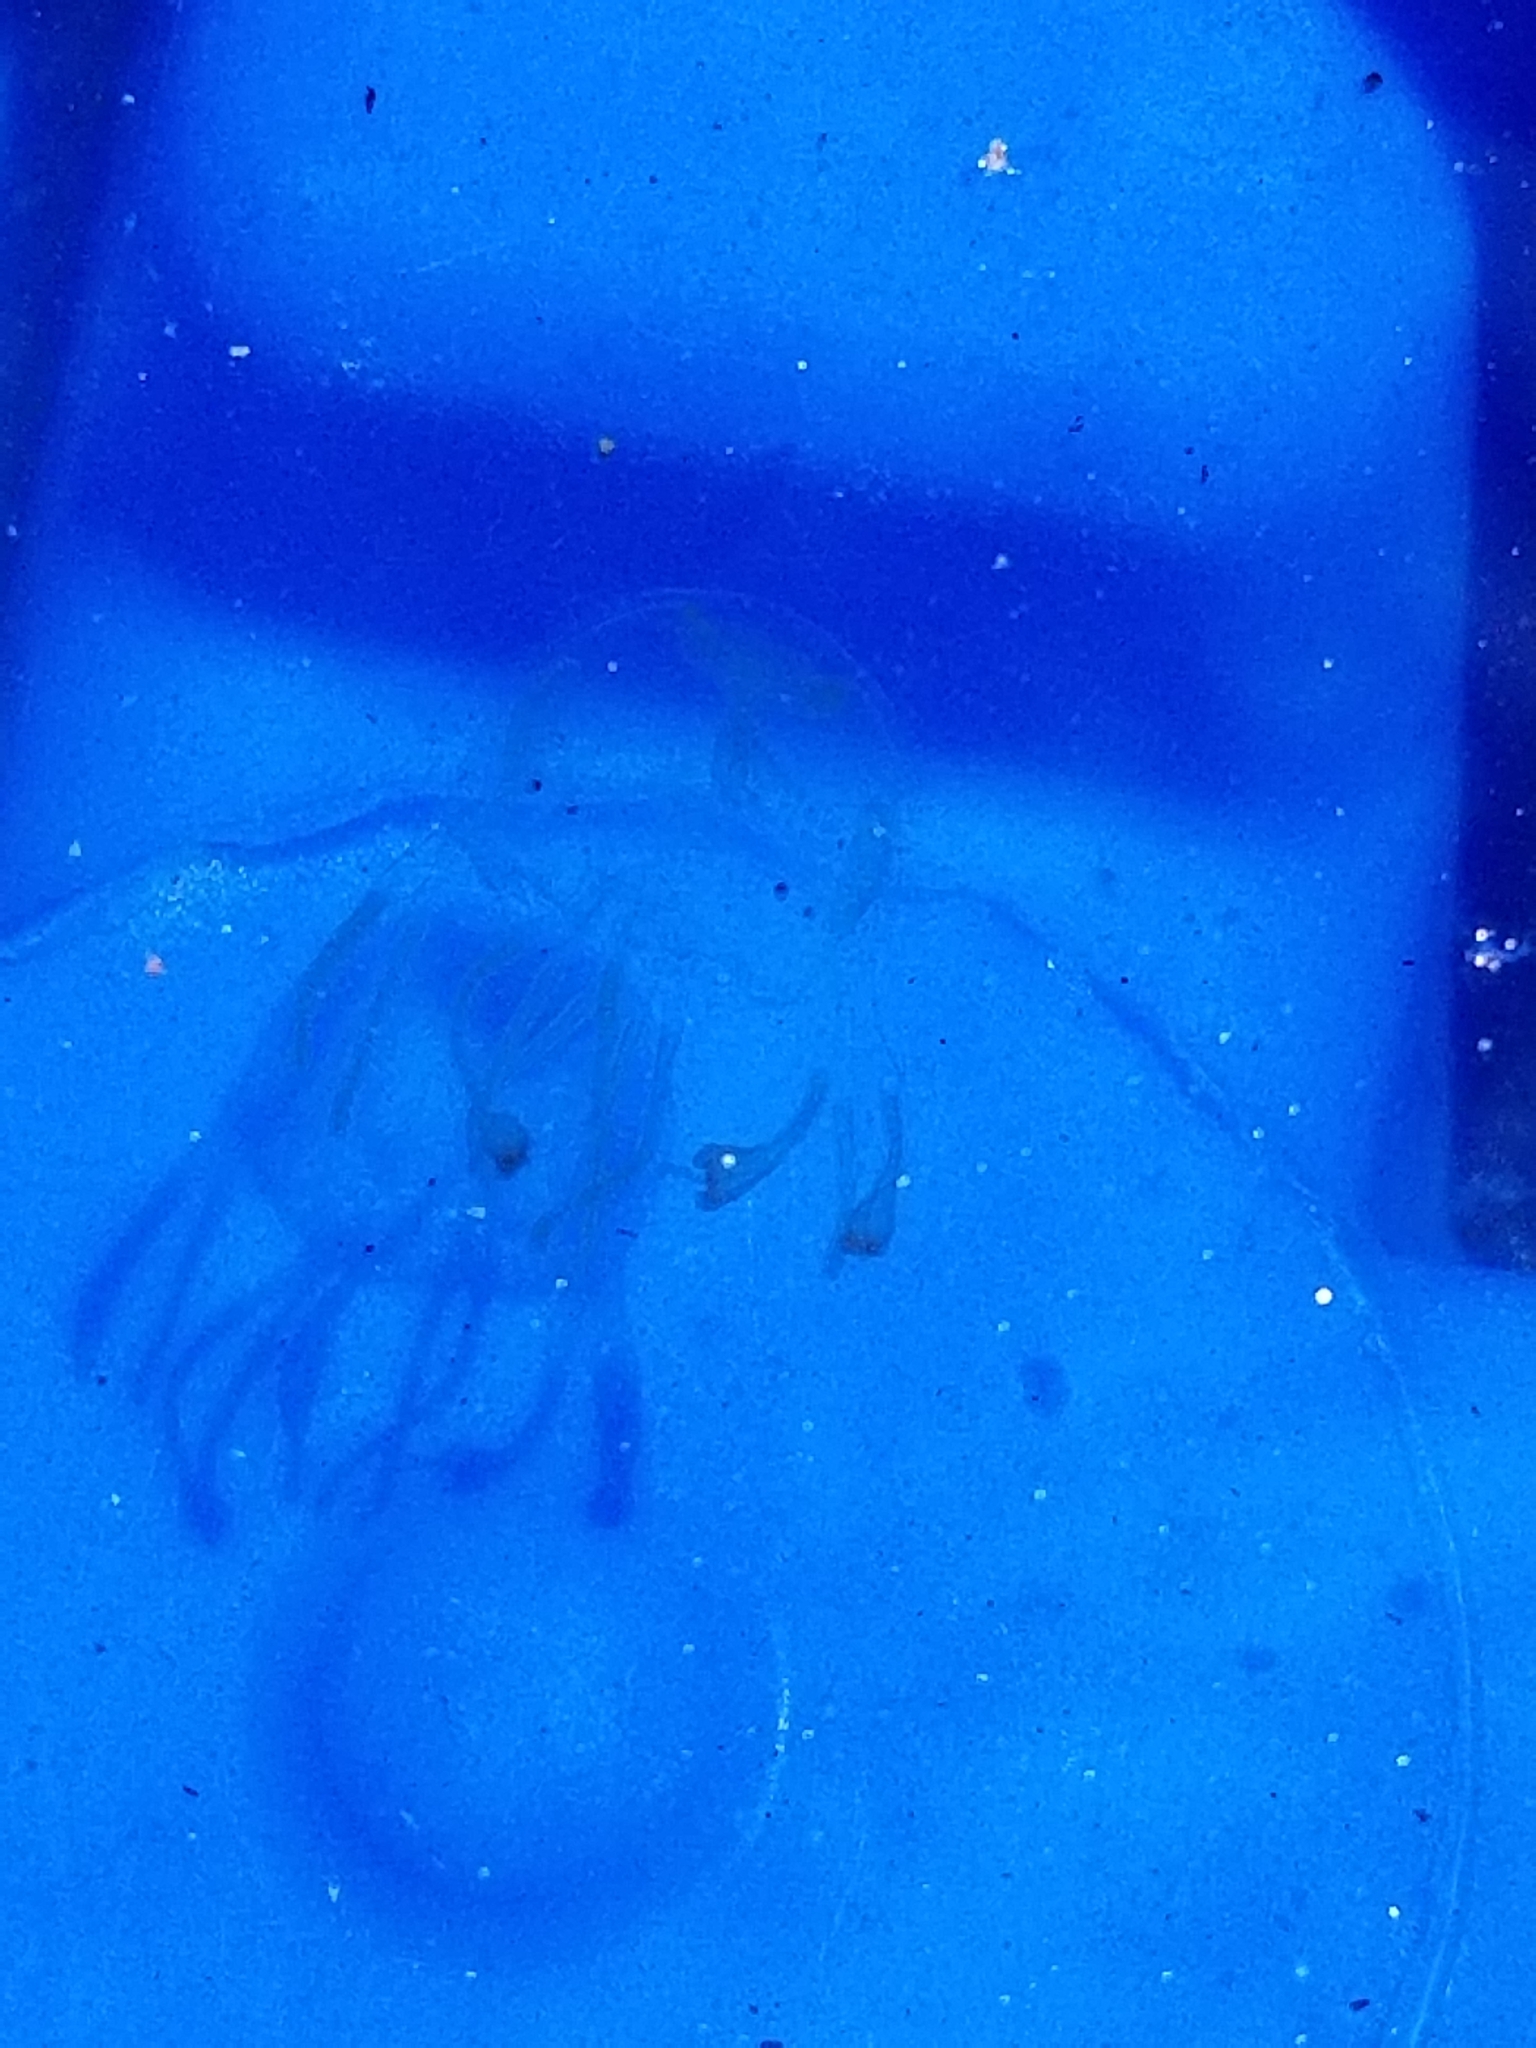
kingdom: Animalia
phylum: Cnidaria
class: Cubozoa
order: Carybdeida
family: Tripedaliidae
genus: Tripedalia
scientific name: Tripedalia cystophora
